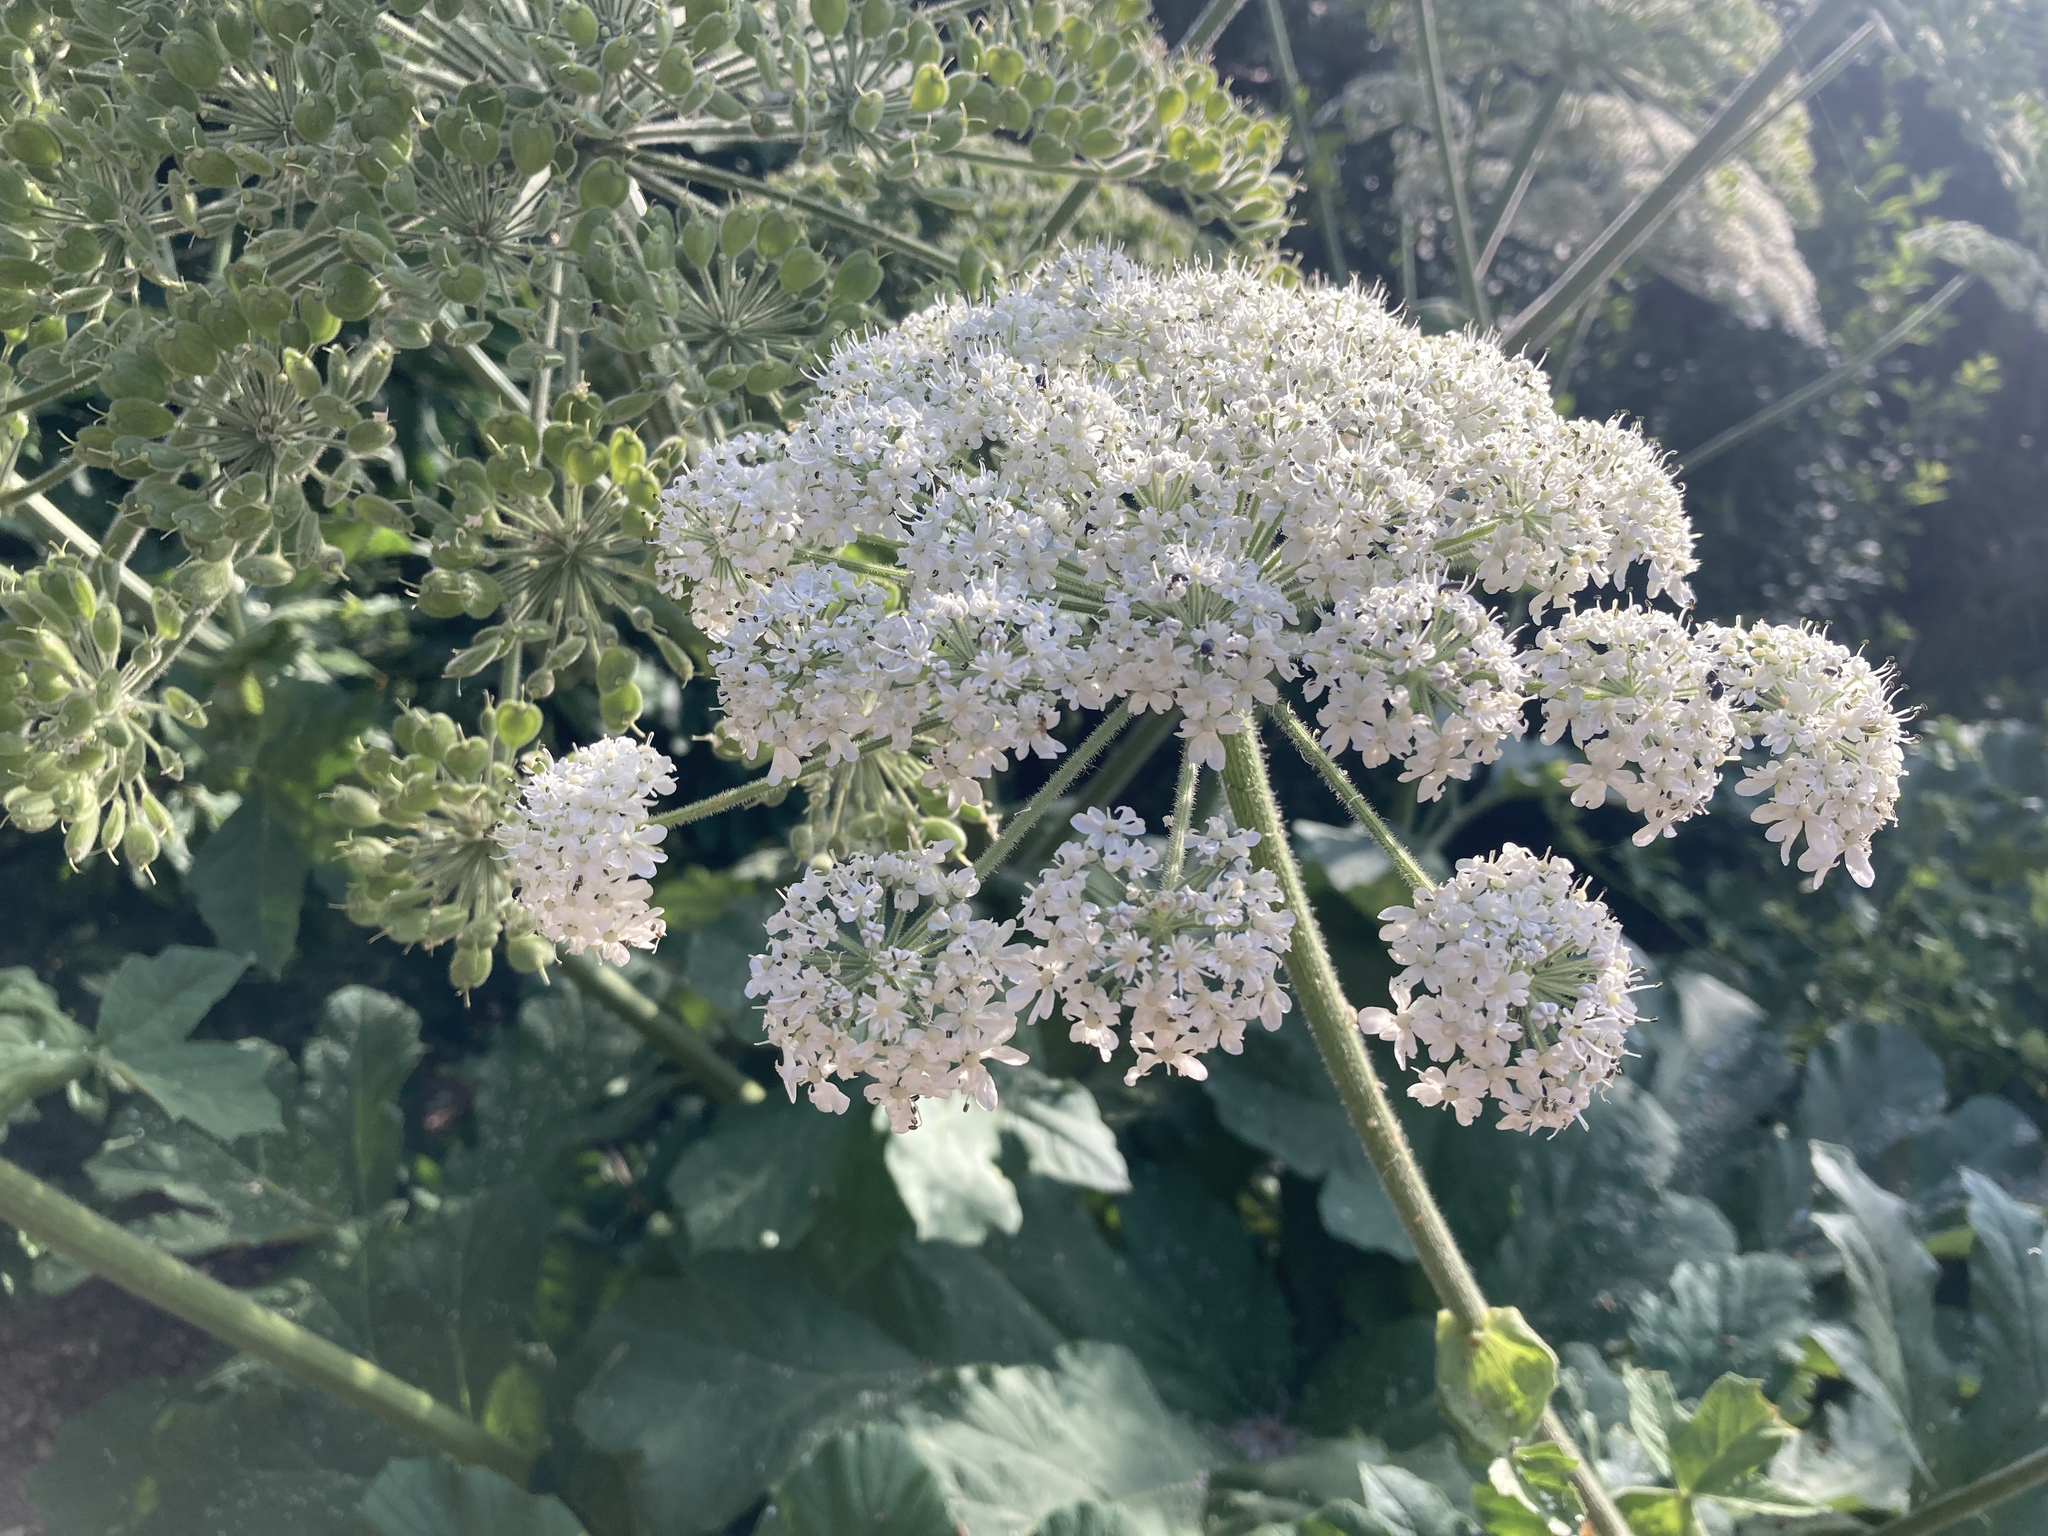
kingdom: Plantae
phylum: Tracheophyta
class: Magnoliopsida
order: Apiales
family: Apiaceae
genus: Heracleum
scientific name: Heracleum platytaenium
